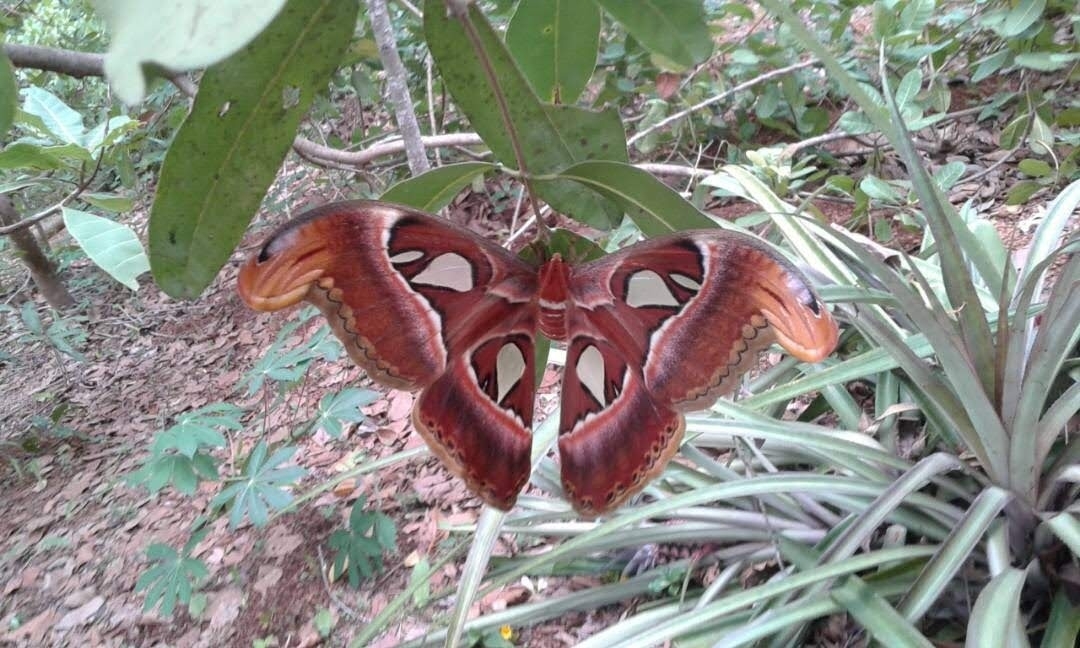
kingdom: Animalia
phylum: Arthropoda
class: Insecta
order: Lepidoptera
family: Saturniidae
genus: Attacus
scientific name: Attacus taprobanis
